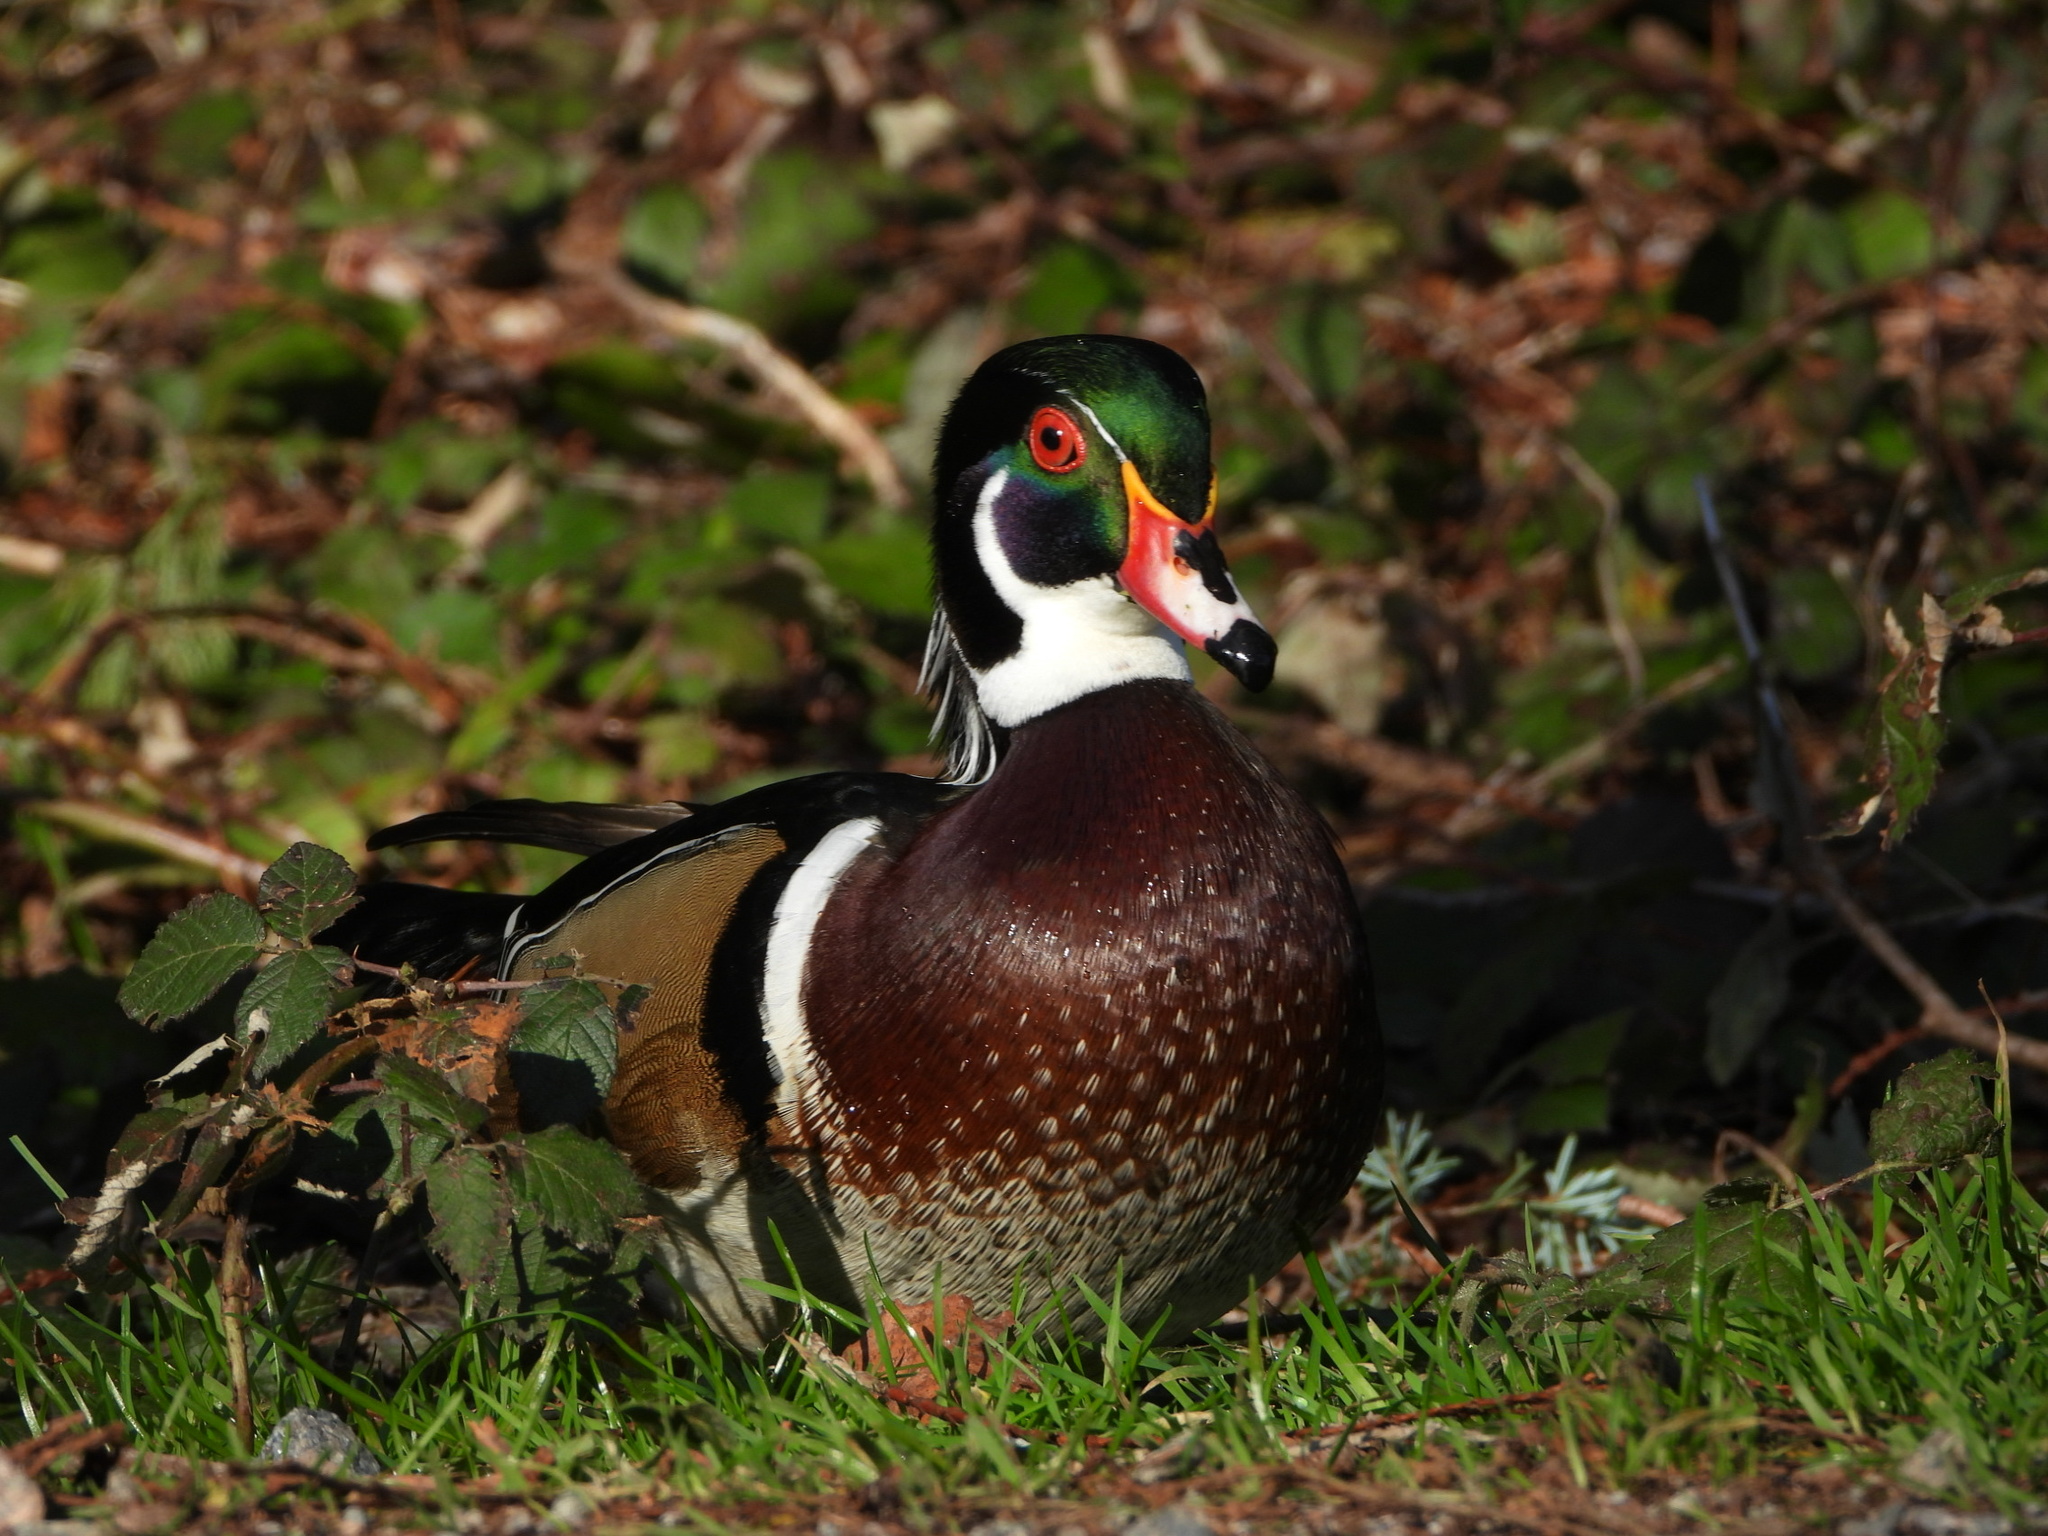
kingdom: Animalia
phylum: Chordata
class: Aves
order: Anseriformes
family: Anatidae
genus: Aix
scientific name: Aix sponsa
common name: Wood duck
